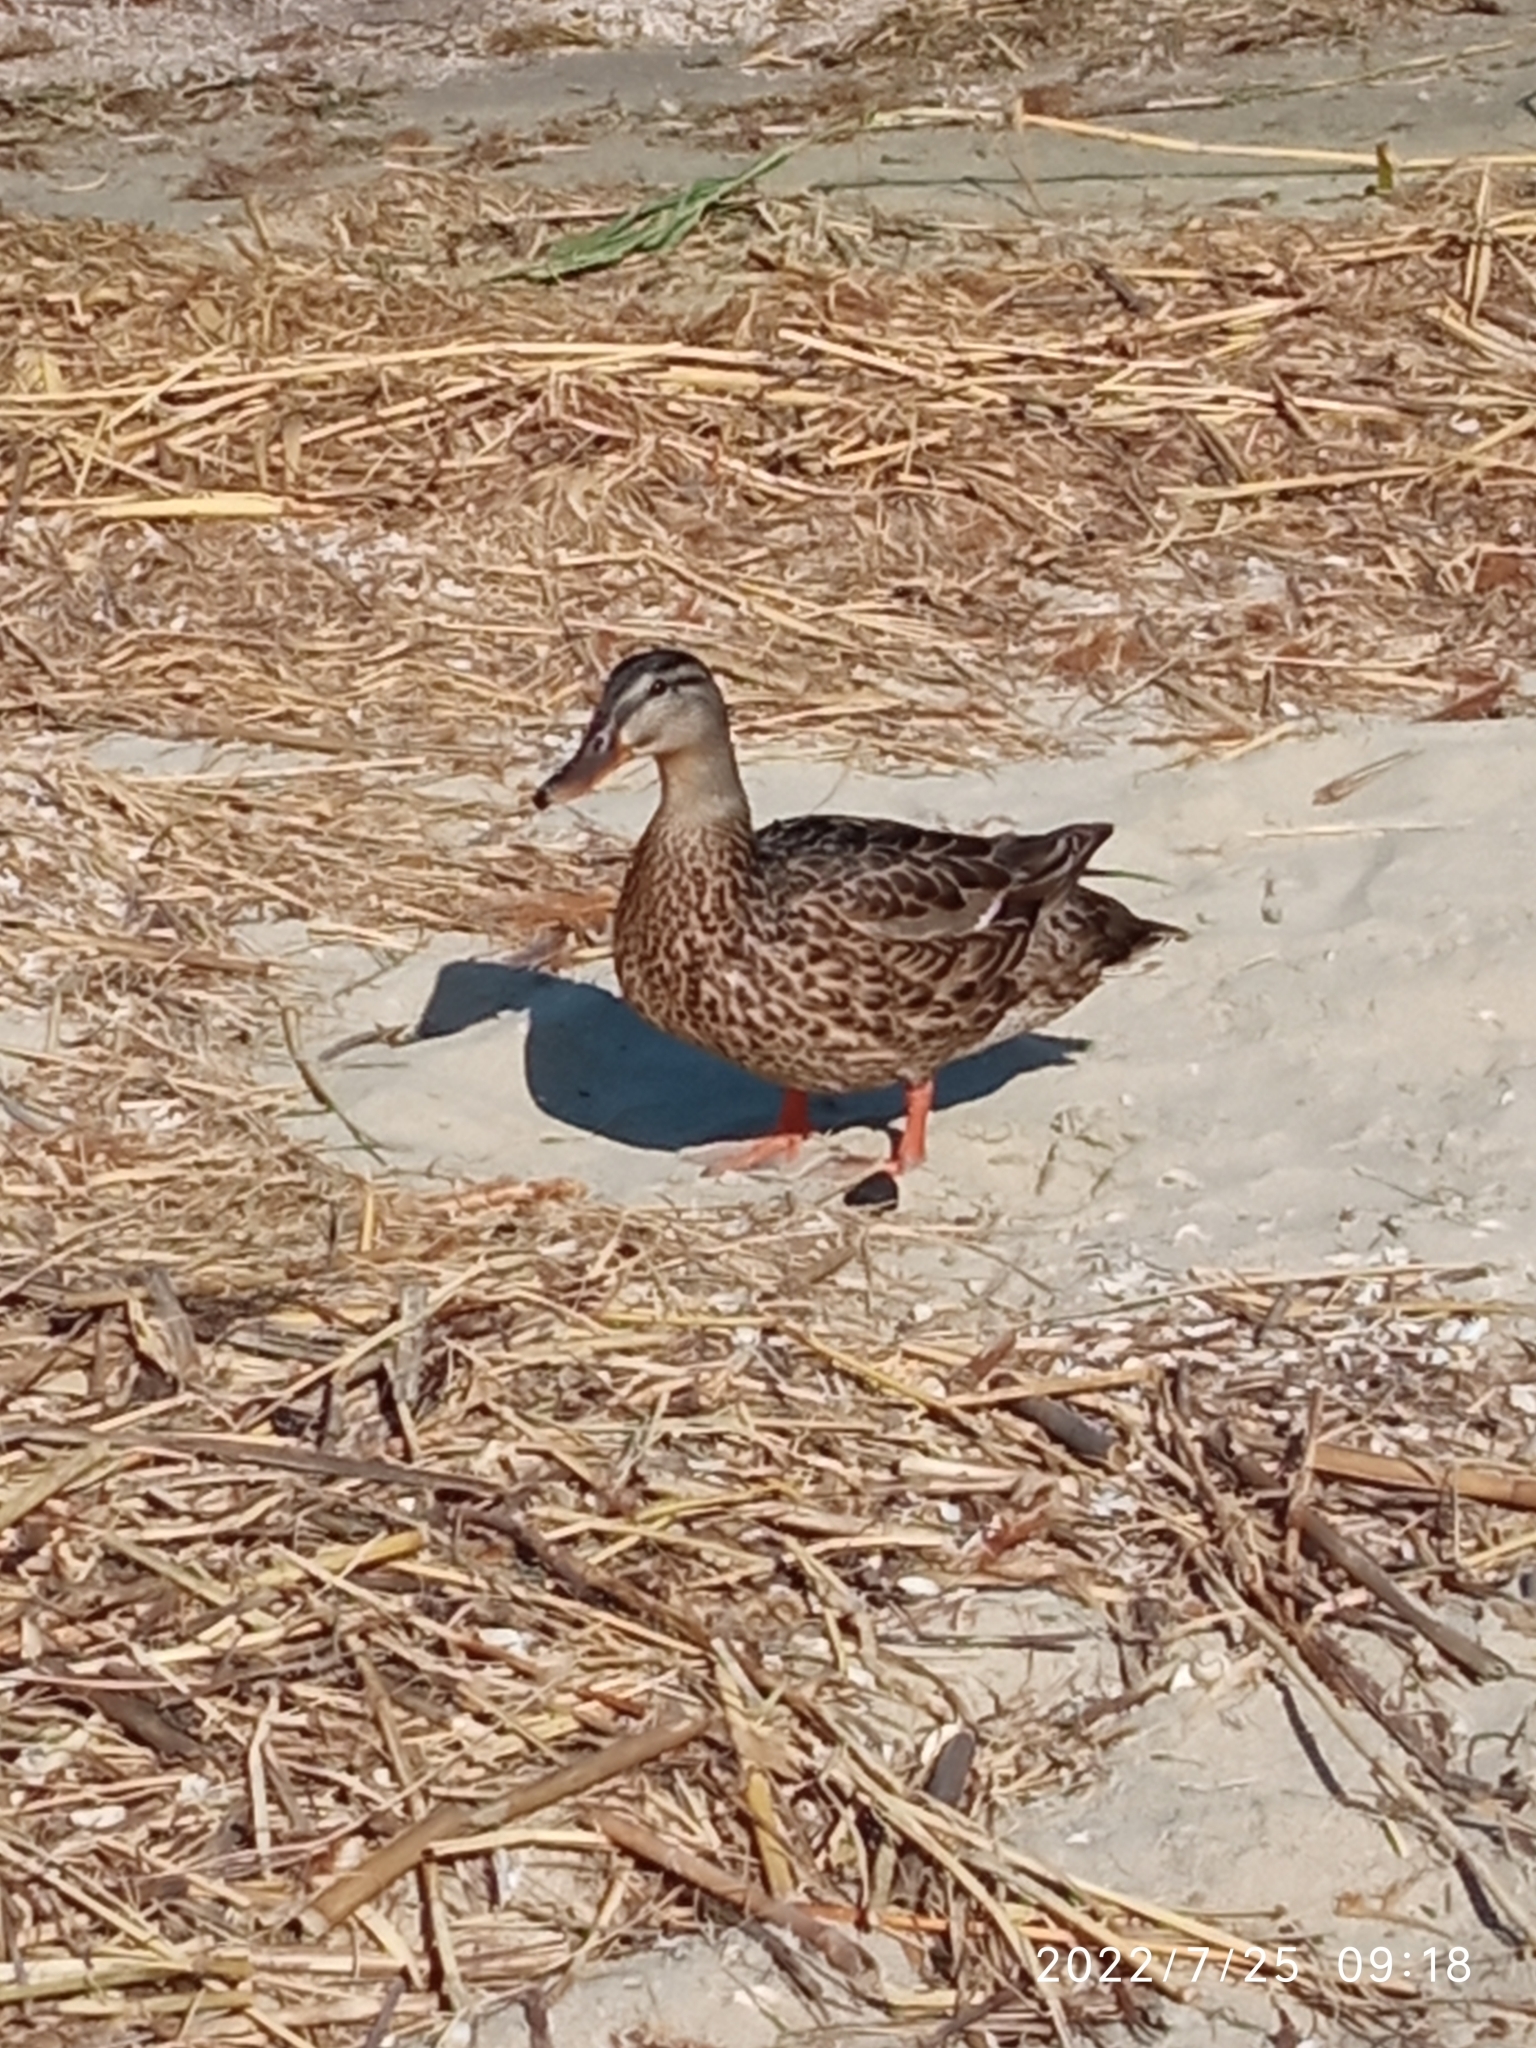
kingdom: Animalia
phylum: Chordata
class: Aves
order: Anseriformes
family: Anatidae
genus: Anas
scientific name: Anas platyrhynchos
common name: Mallard
